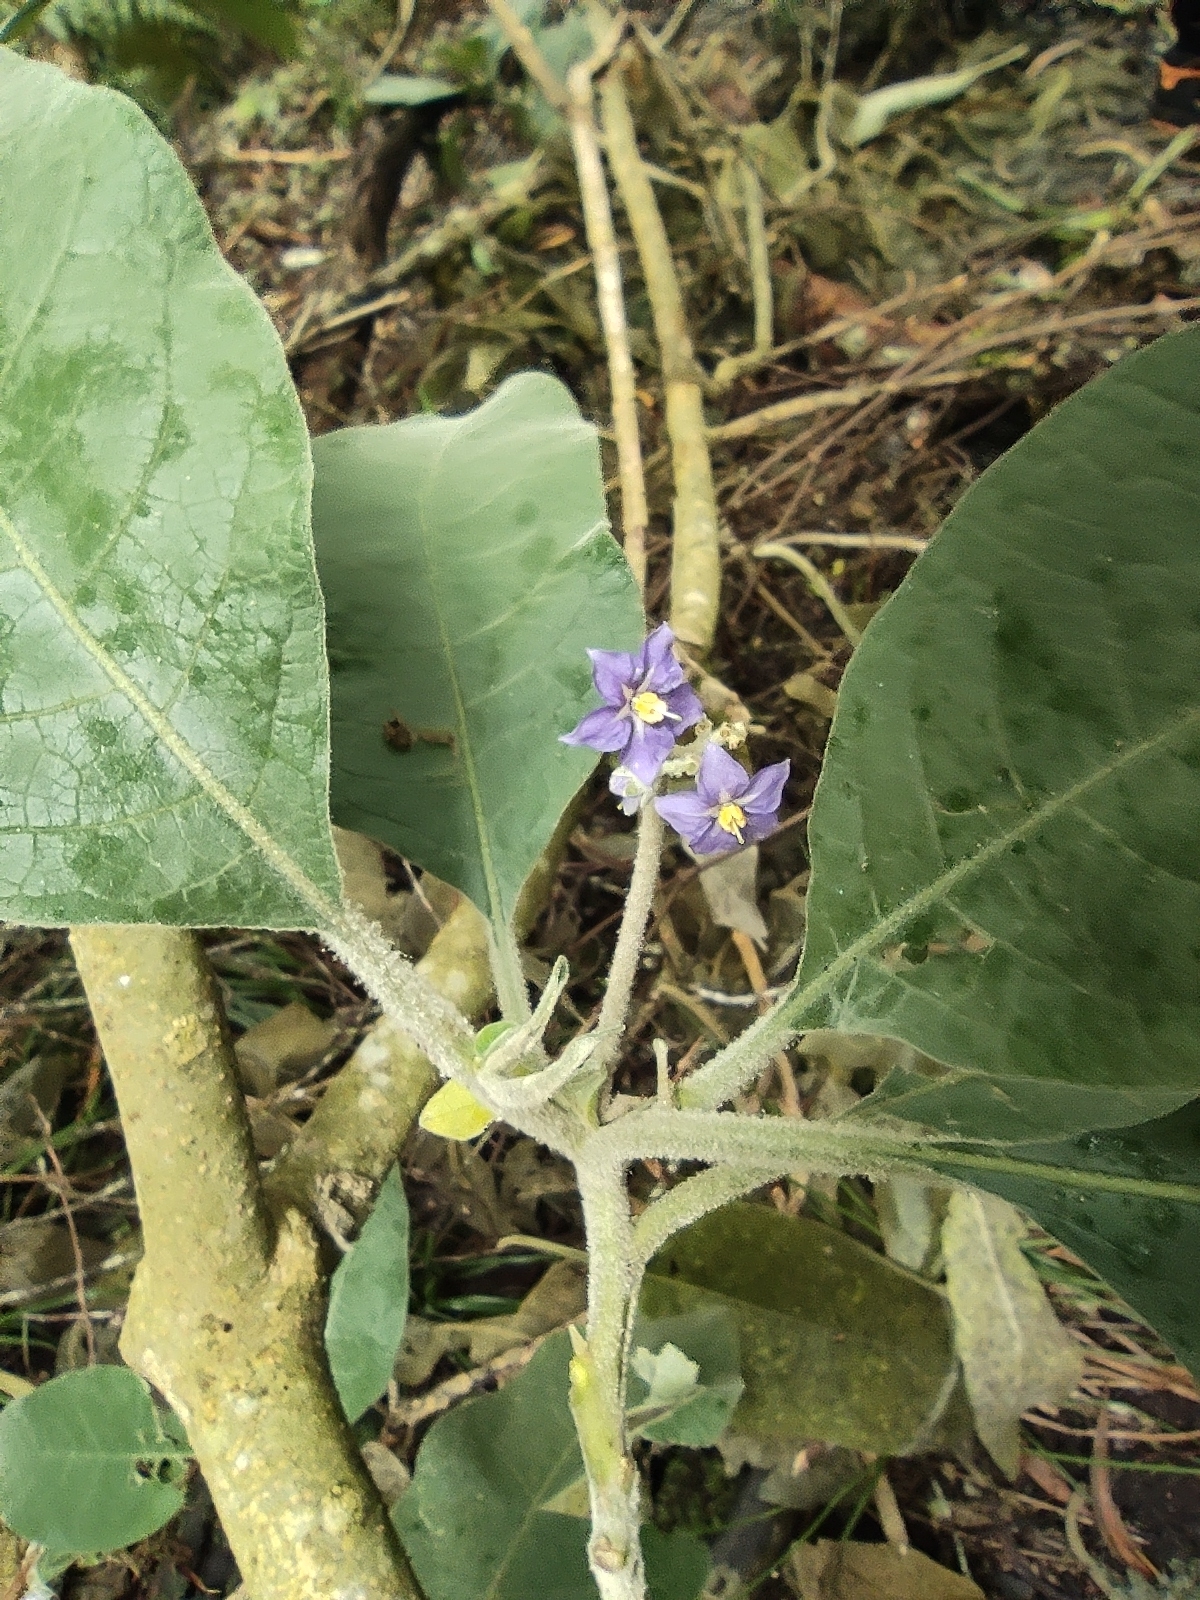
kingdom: Plantae
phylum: Tracheophyta
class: Magnoliopsida
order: Solanales
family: Solanaceae
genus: Solanum
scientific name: Solanum mauritianum
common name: Earleaf nightshade
